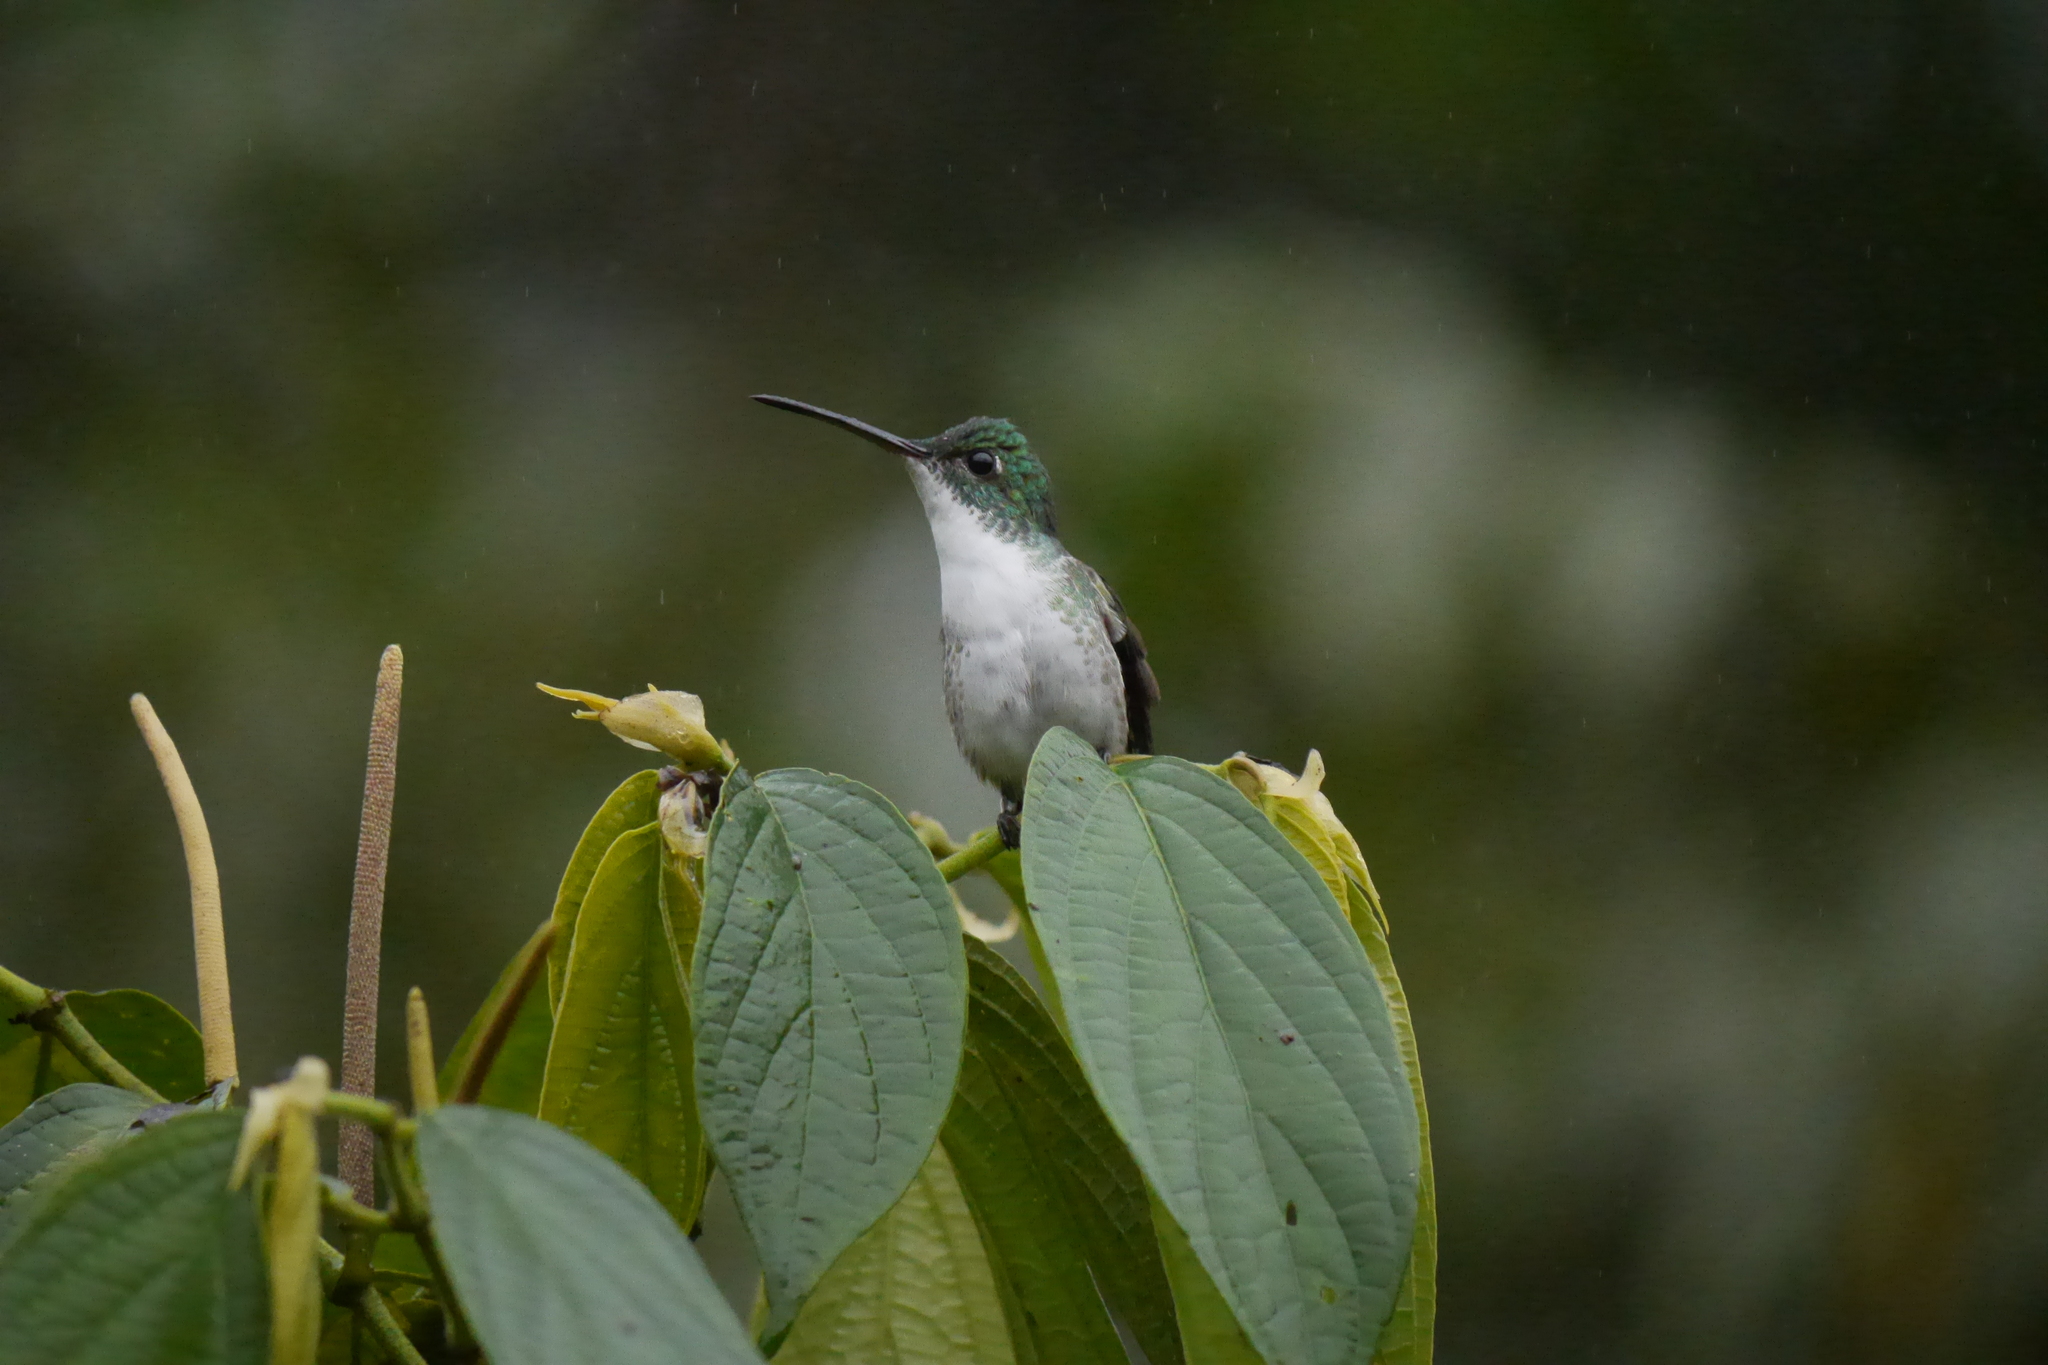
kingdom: Animalia
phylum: Chordata
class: Aves
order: Apodiformes
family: Trochilidae
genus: Uranomitra
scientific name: Uranomitra franciae
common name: Andean emerald
